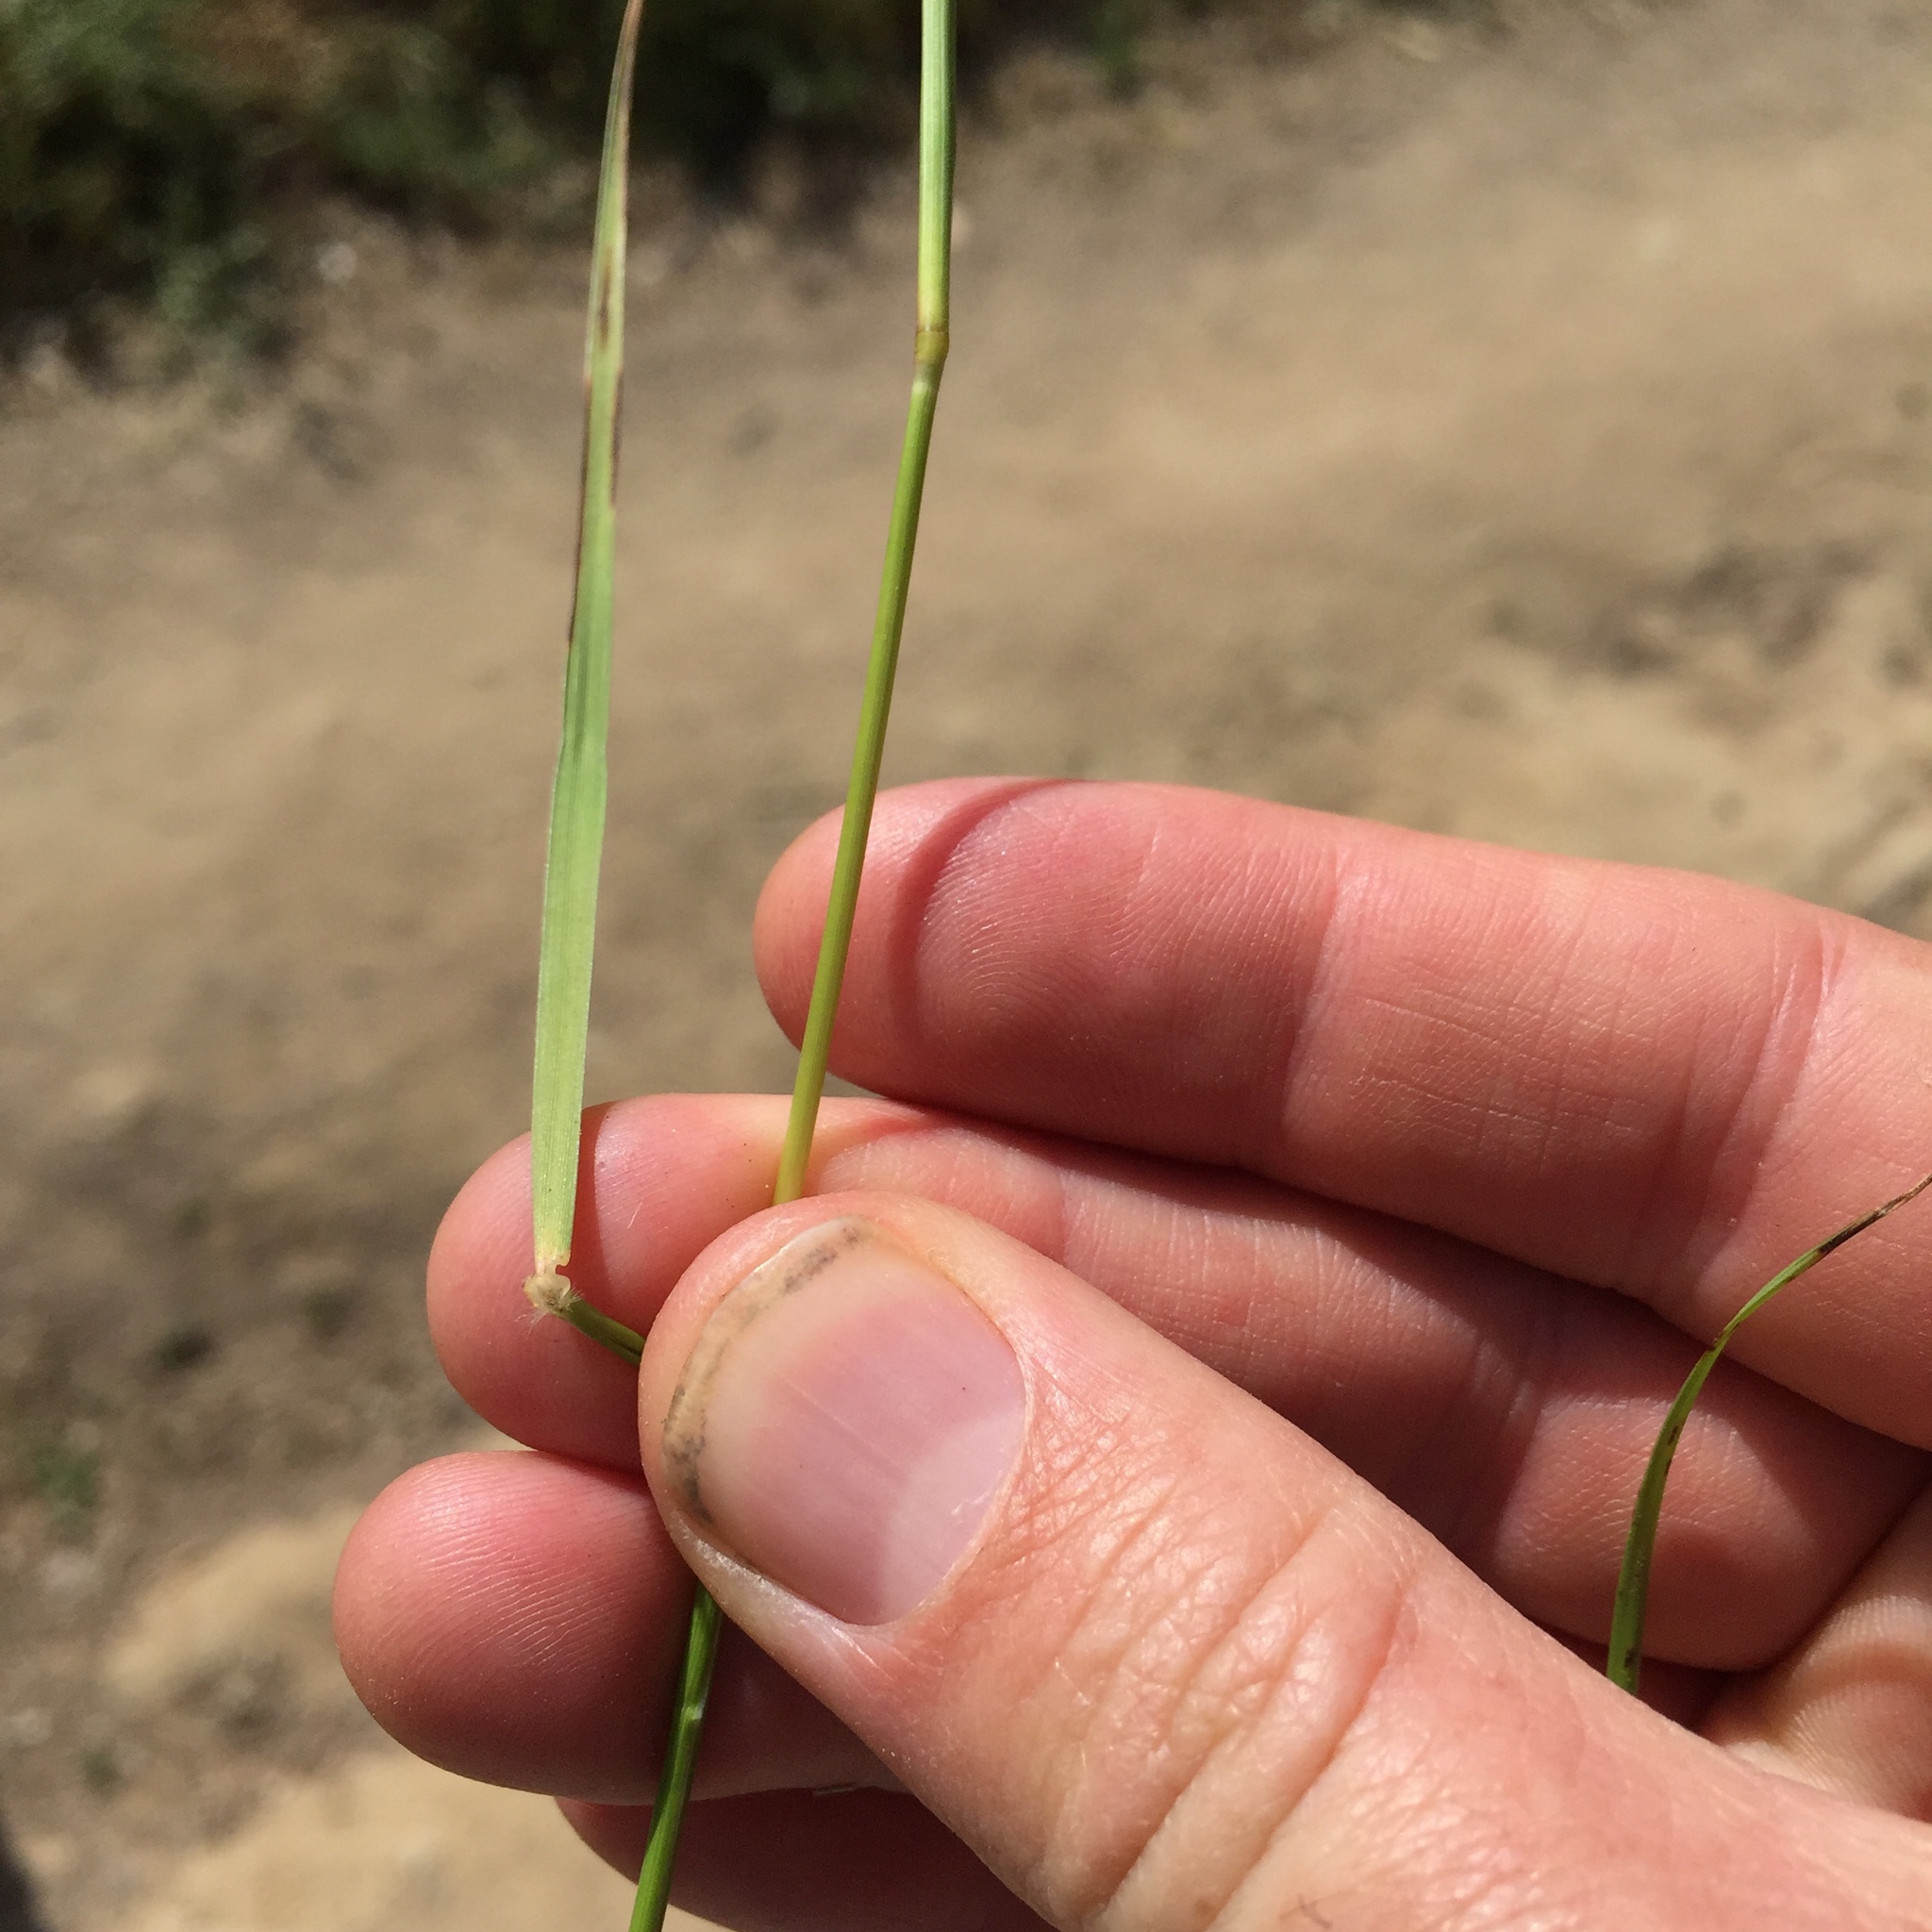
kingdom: Plantae
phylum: Tracheophyta
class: Liliopsida
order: Poales
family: Poaceae
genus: Danthonia
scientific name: Danthonia californica
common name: California oat grass
